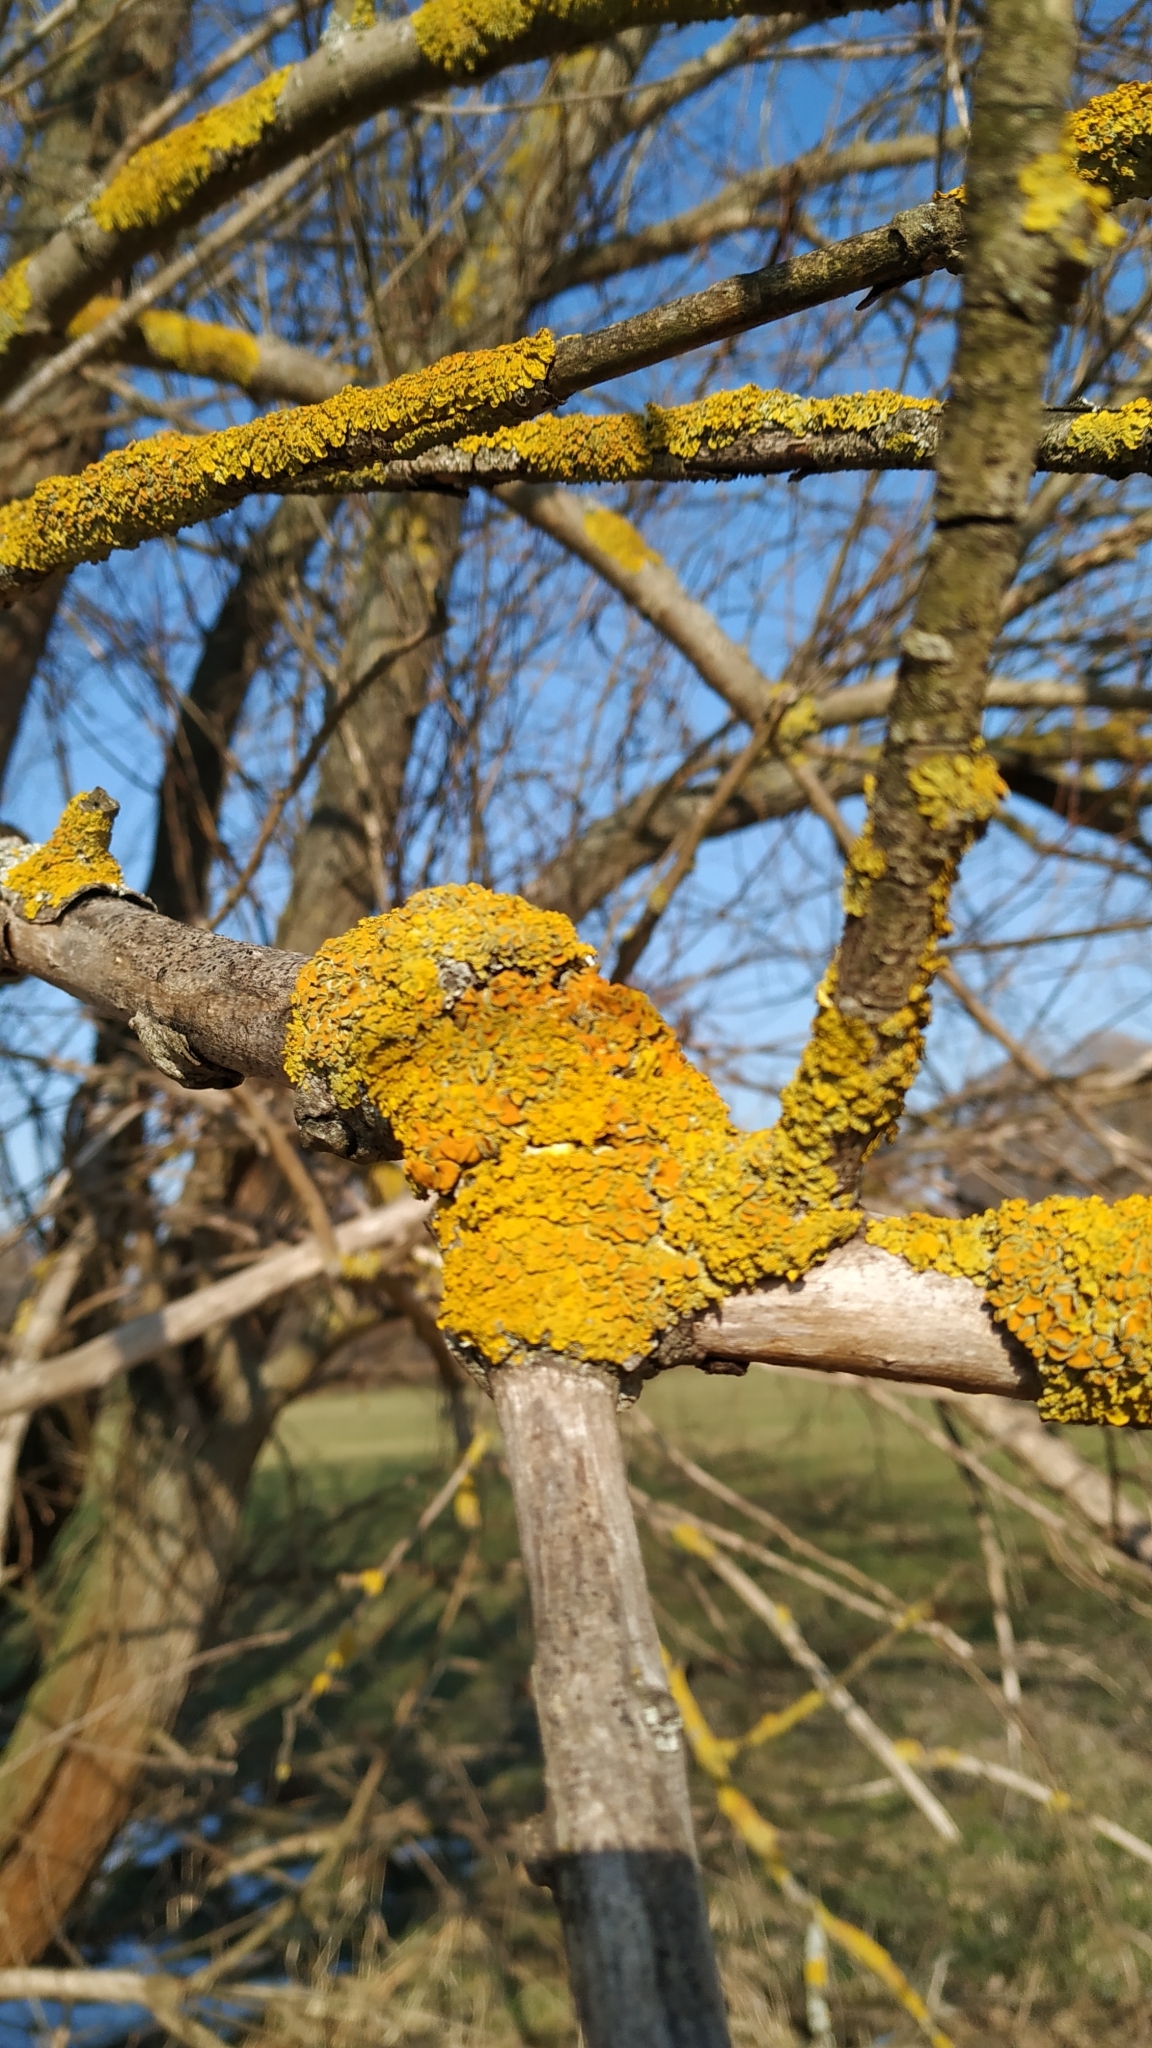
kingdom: Fungi
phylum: Ascomycota
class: Lecanoromycetes
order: Teloschistales
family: Teloschistaceae
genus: Xanthoria
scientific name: Xanthoria parietina
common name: Common orange lichen
